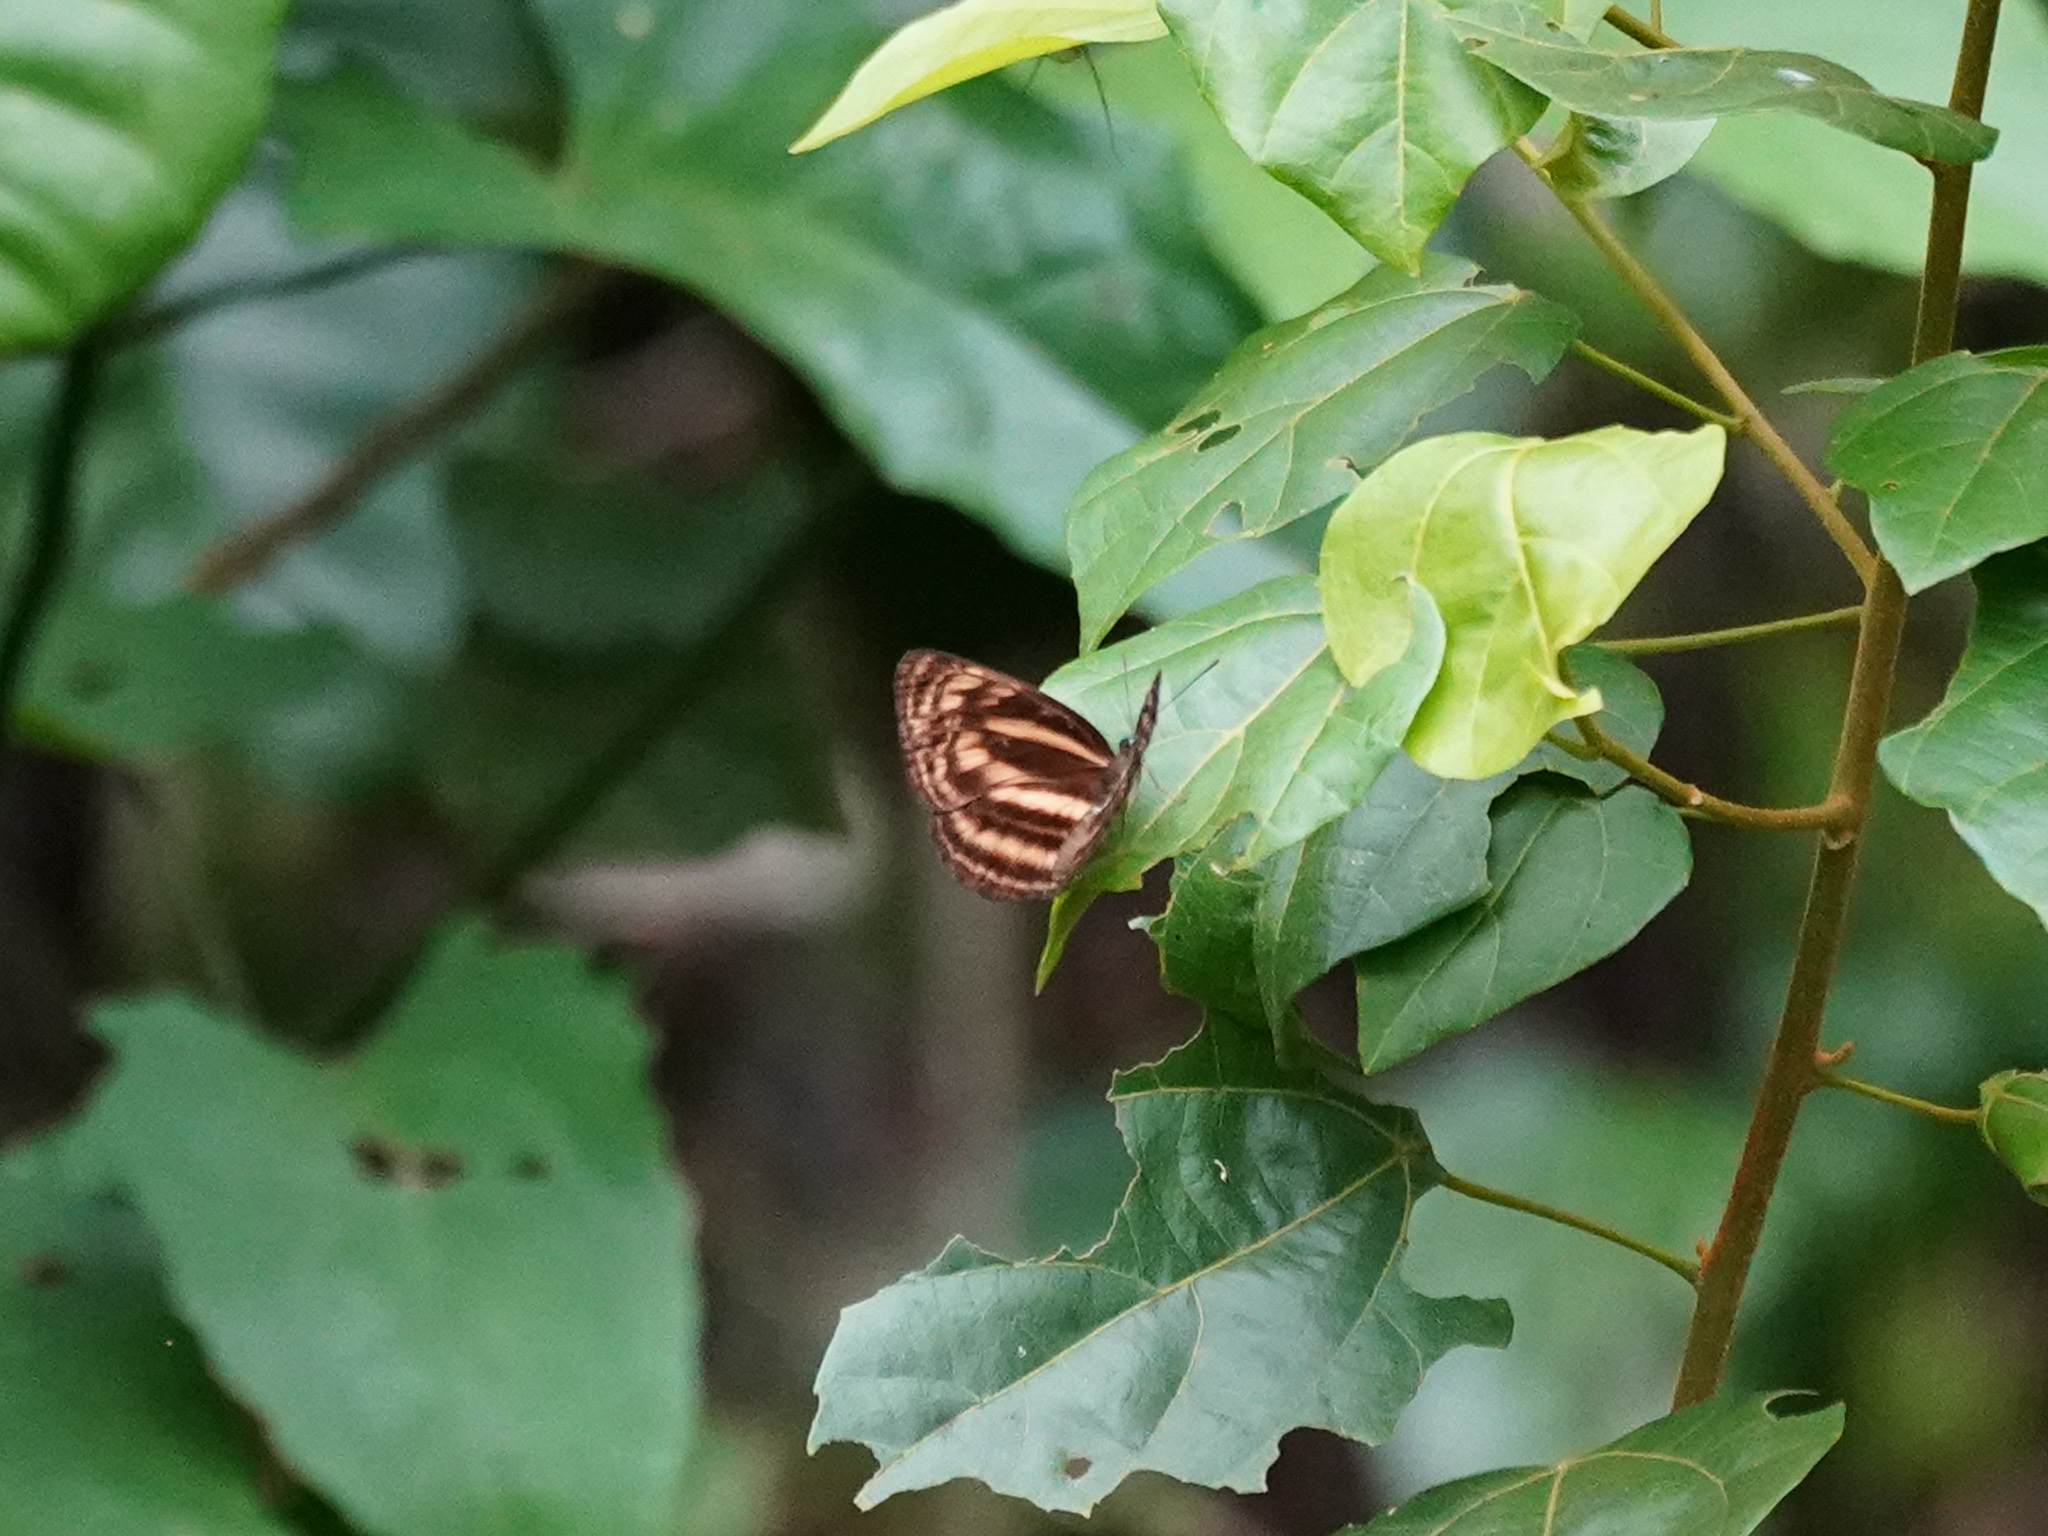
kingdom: Animalia
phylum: Arthropoda
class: Insecta
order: Lepidoptera
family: Nymphalidae
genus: Lasippa
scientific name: Lasippa monata
